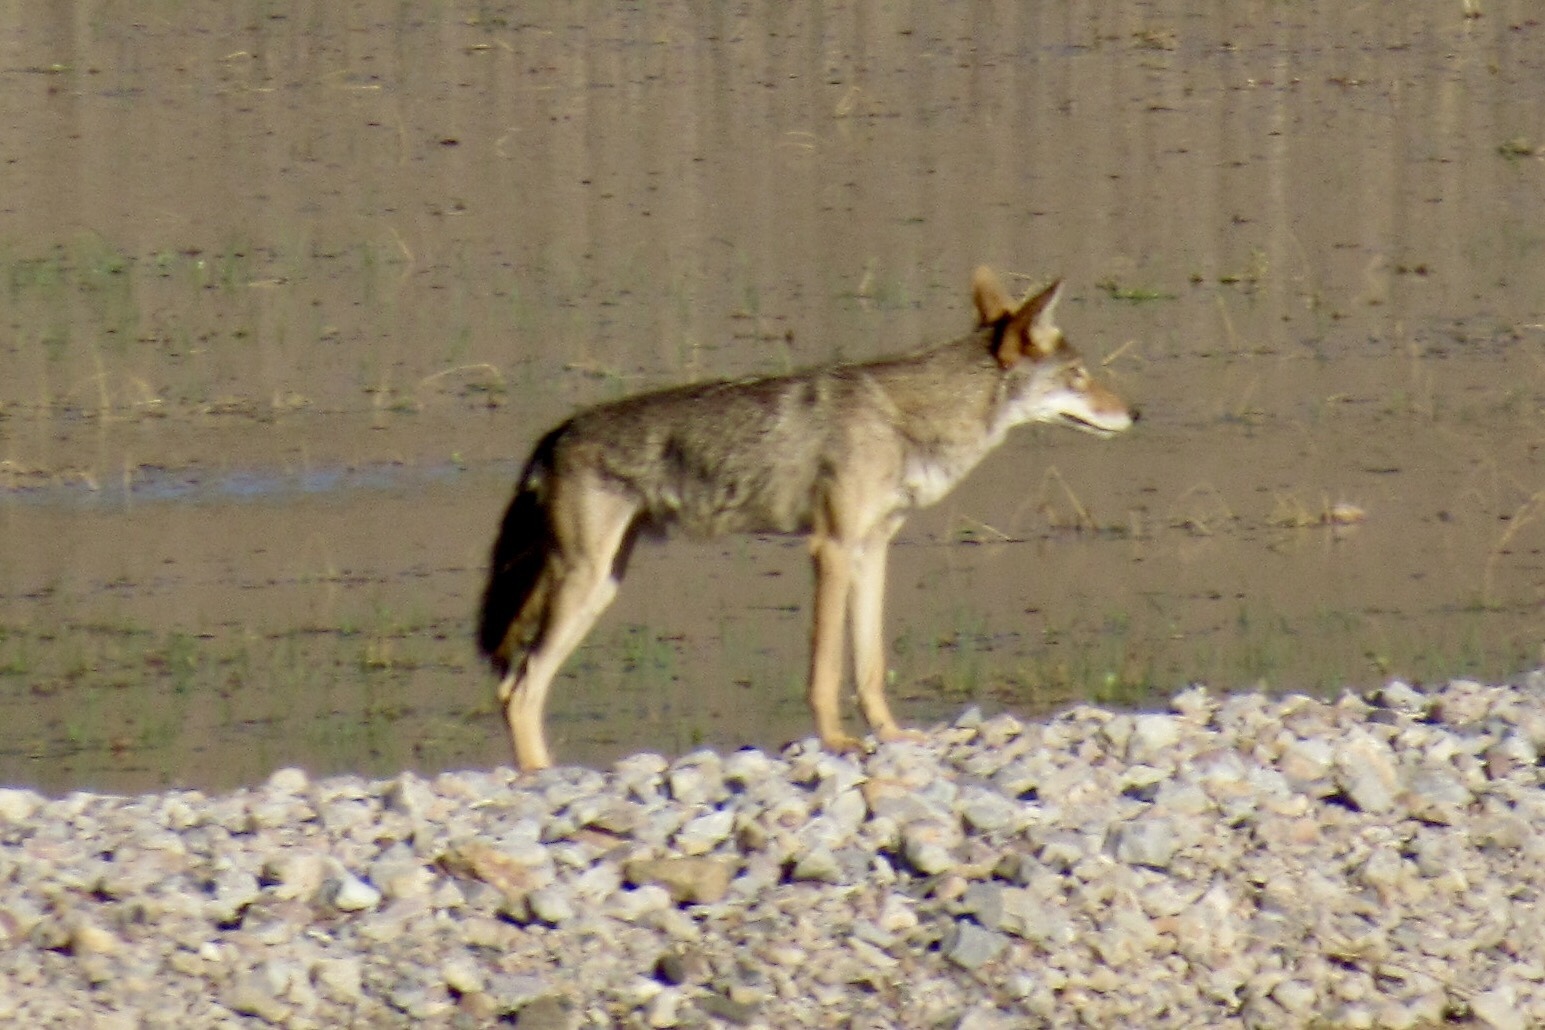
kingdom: Animalia
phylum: Chordata
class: Mammalia
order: Carnivora
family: Canidae
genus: Canis
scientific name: Canis latrans
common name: Coyote
